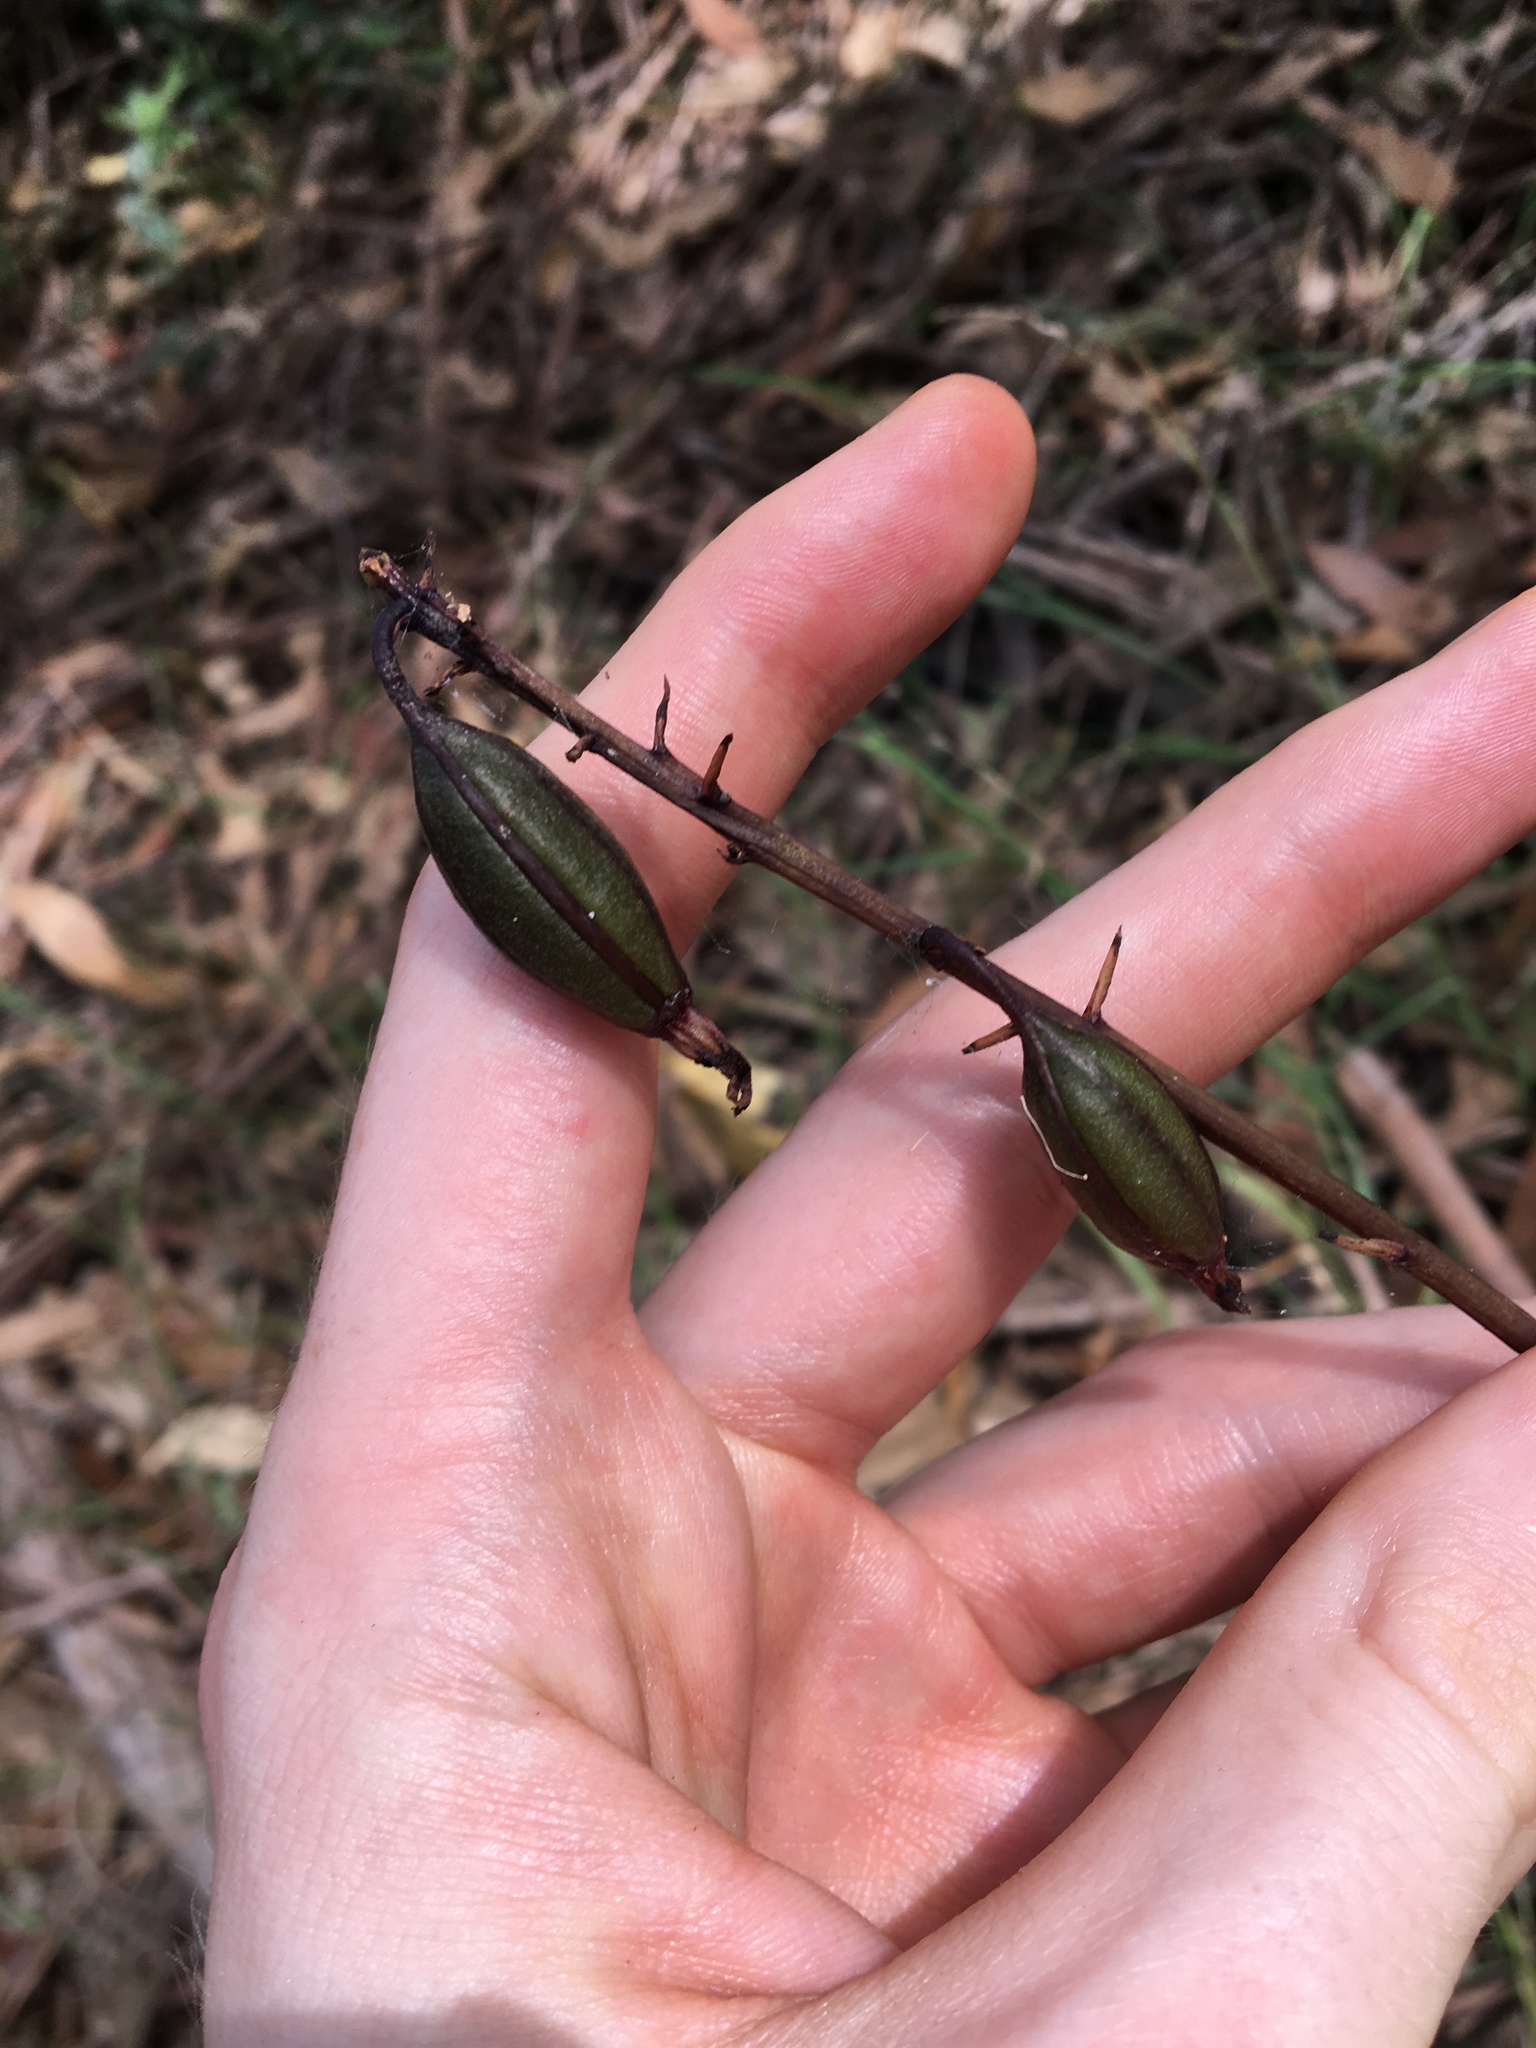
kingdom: Plantae
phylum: Tracheophyta
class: Liliopsida
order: Asparagales
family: Orchidaceae
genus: Dipodium
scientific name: Dipodium squamatum
